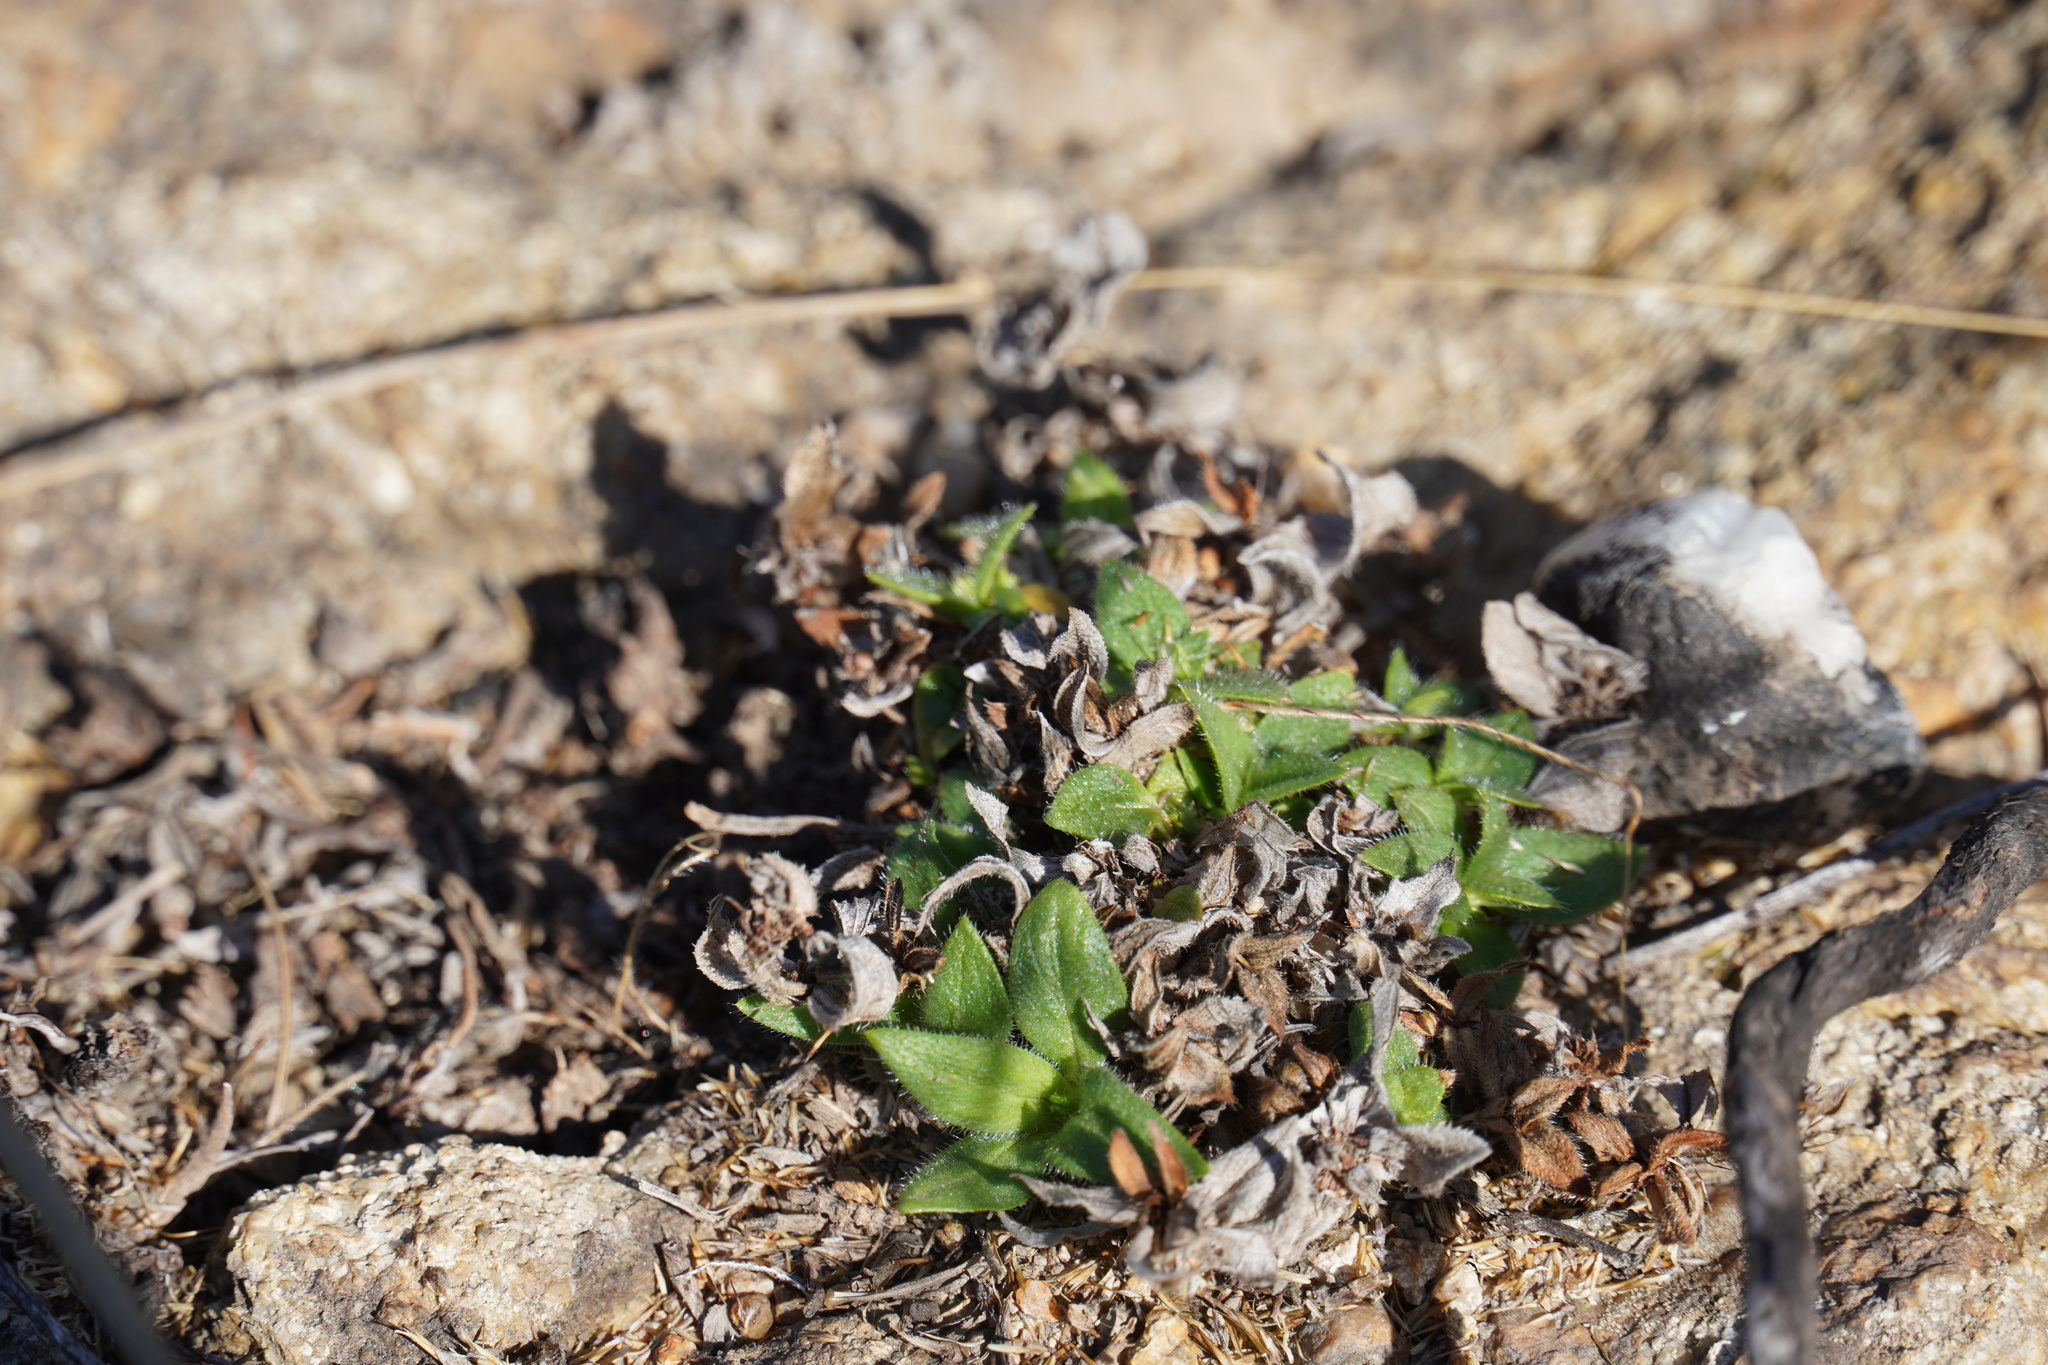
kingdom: Plantae
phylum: Tracheophyta
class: Magnoliopsida
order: Saxifragales
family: Crassulaceae
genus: Crassula
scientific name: Crassula setulosa
